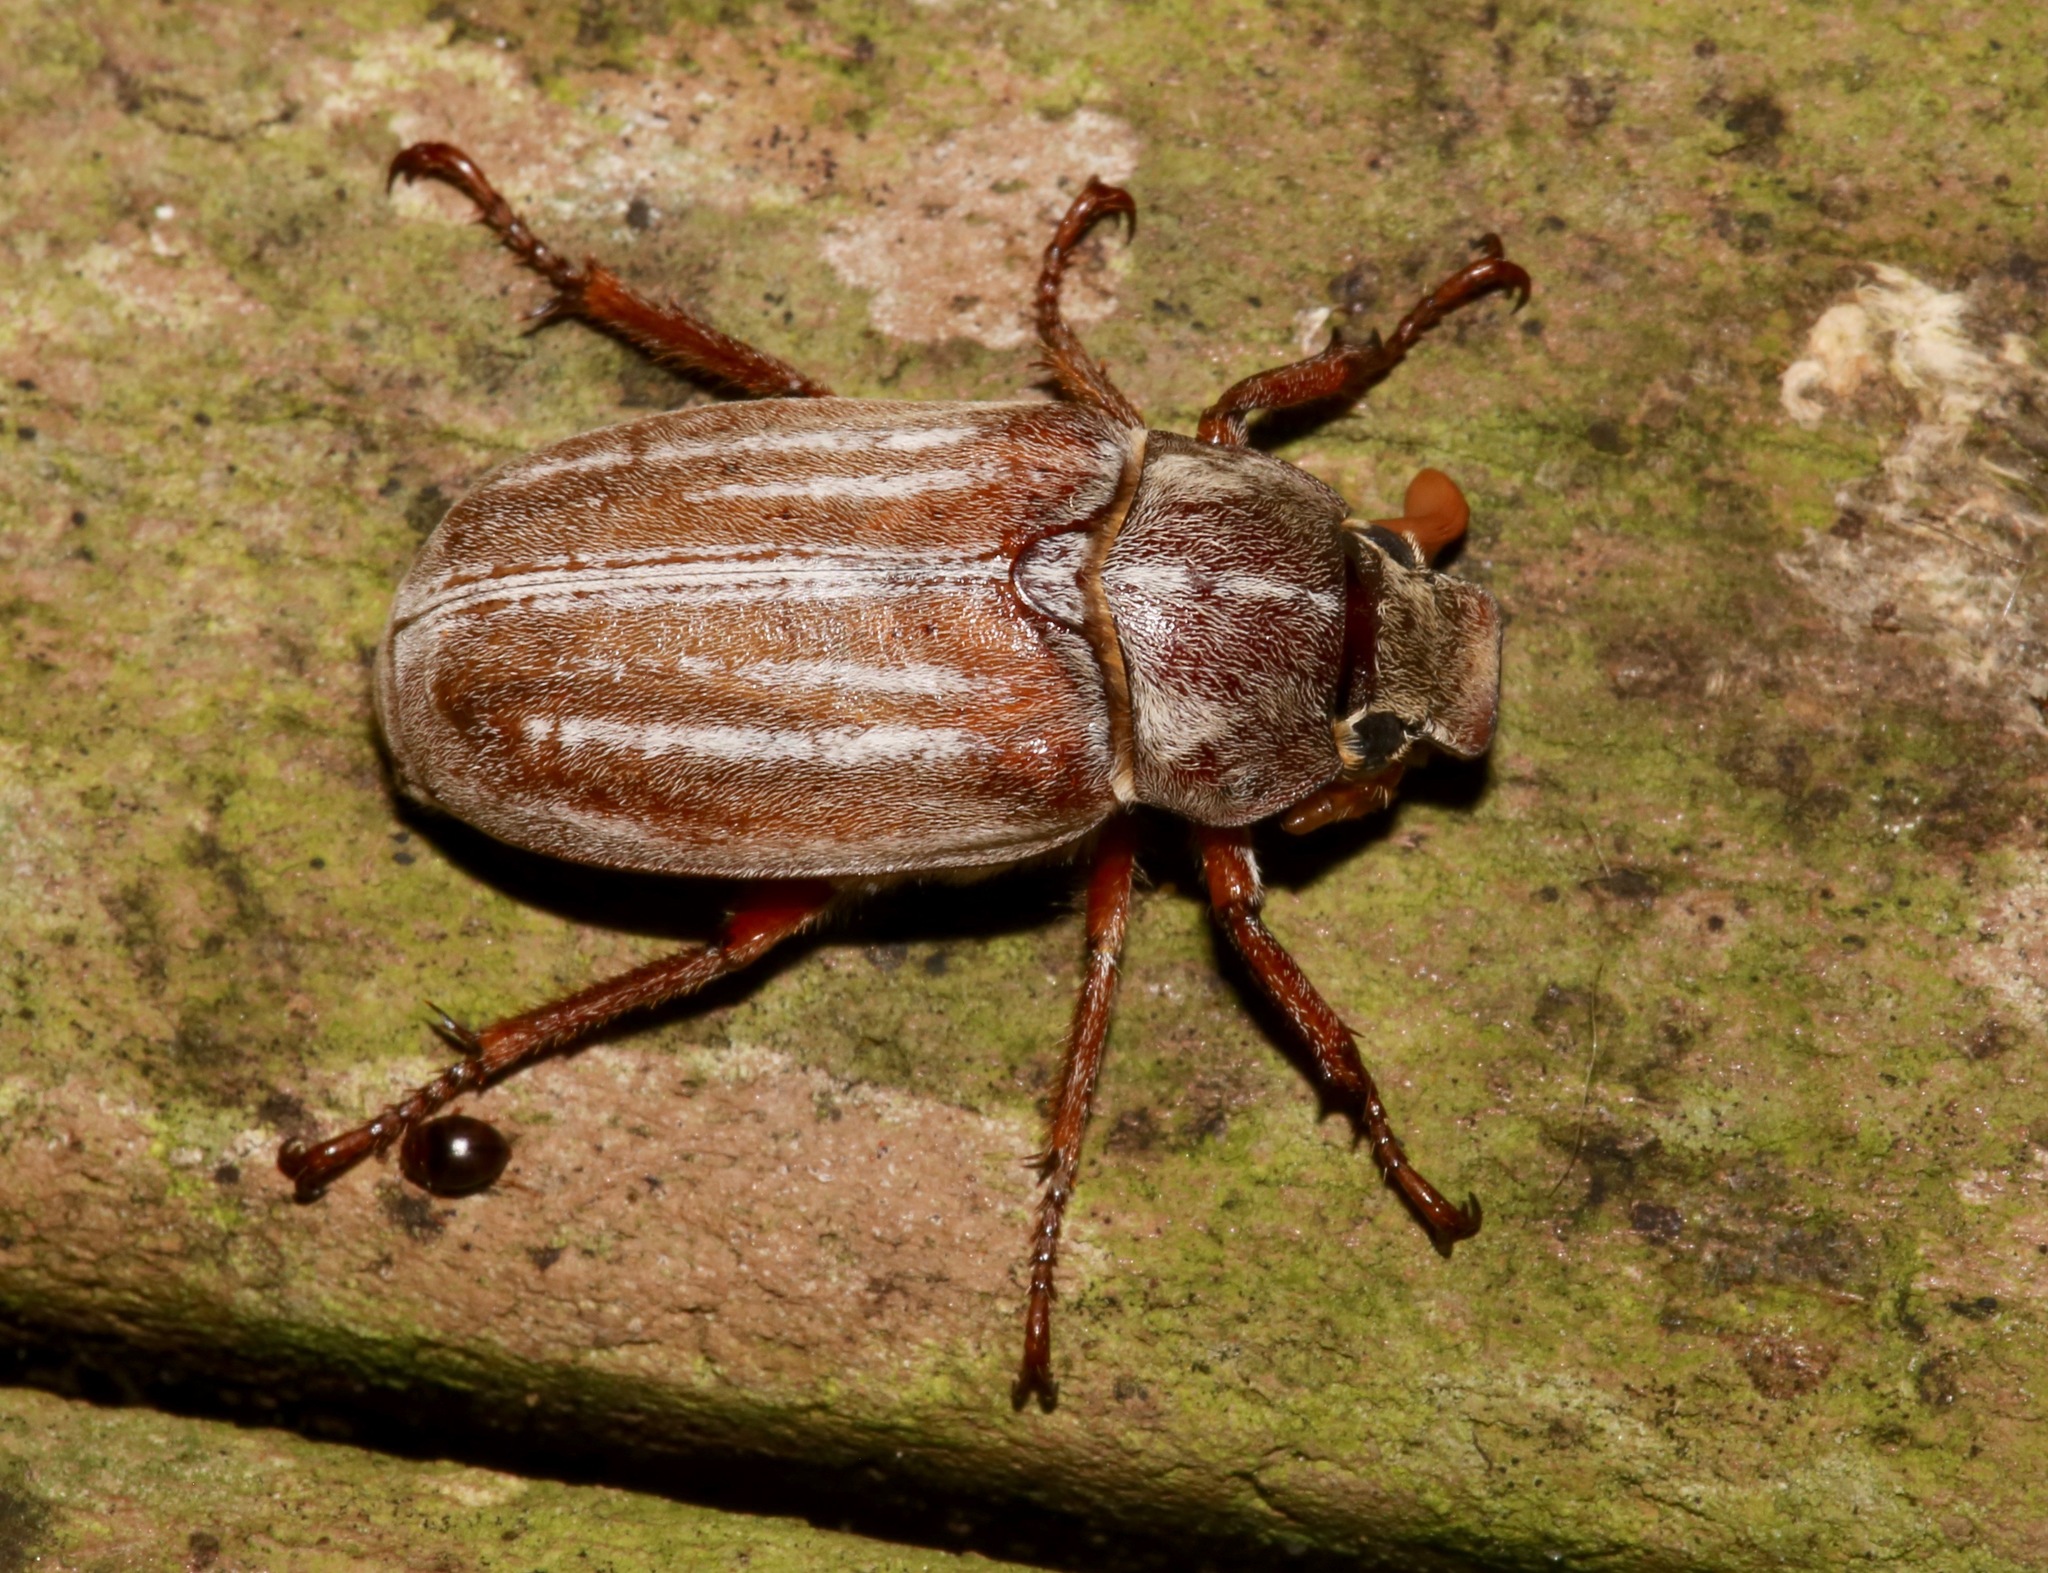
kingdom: Animalia
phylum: Arthropoda
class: Insecta
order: Coleoptera
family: Scarabaeidae
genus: Polyphylla
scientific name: Polyphylla occidentalis
